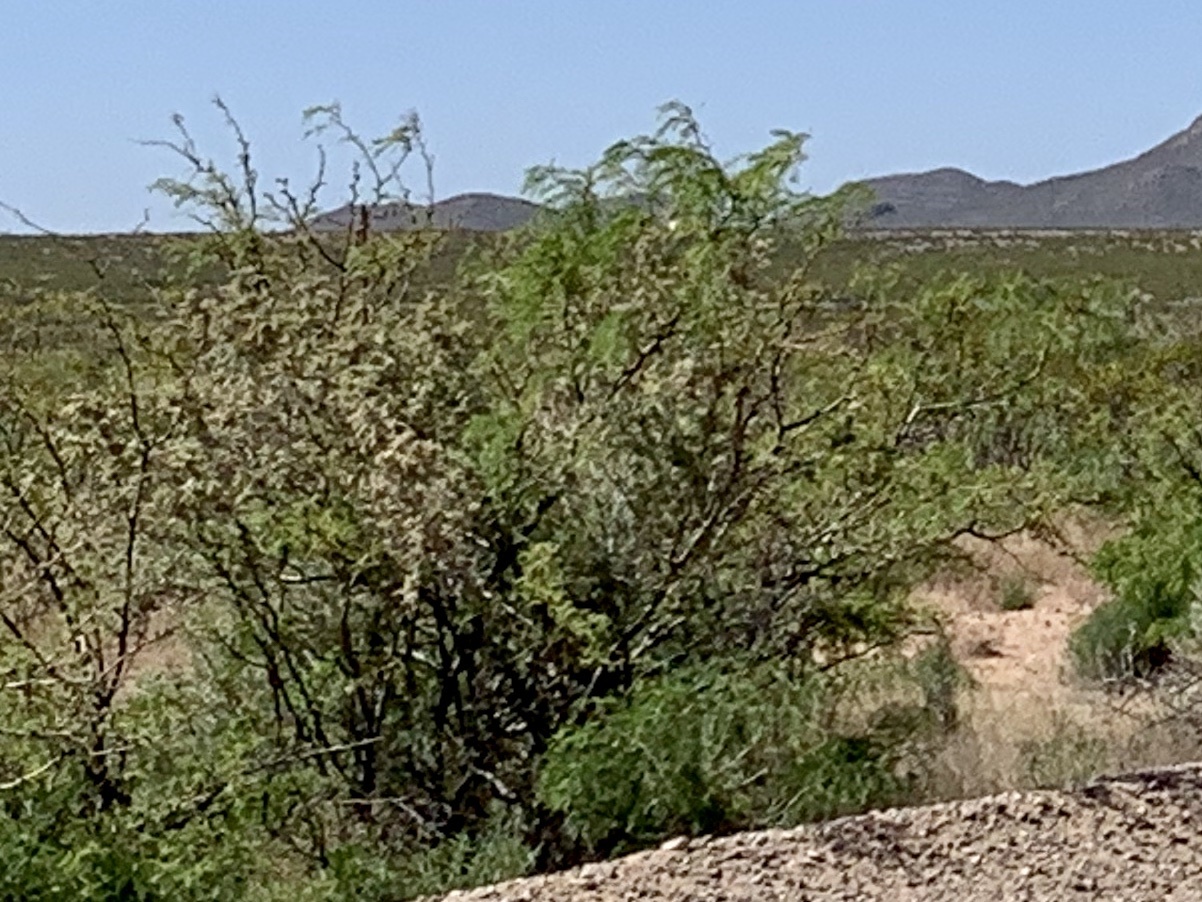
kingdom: Plantae
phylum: Tracheophyta
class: Magnoliopsida
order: Fabales
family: Fabaceae
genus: Prosopis
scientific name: Prosopis glandulosa
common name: Honey mesquite
